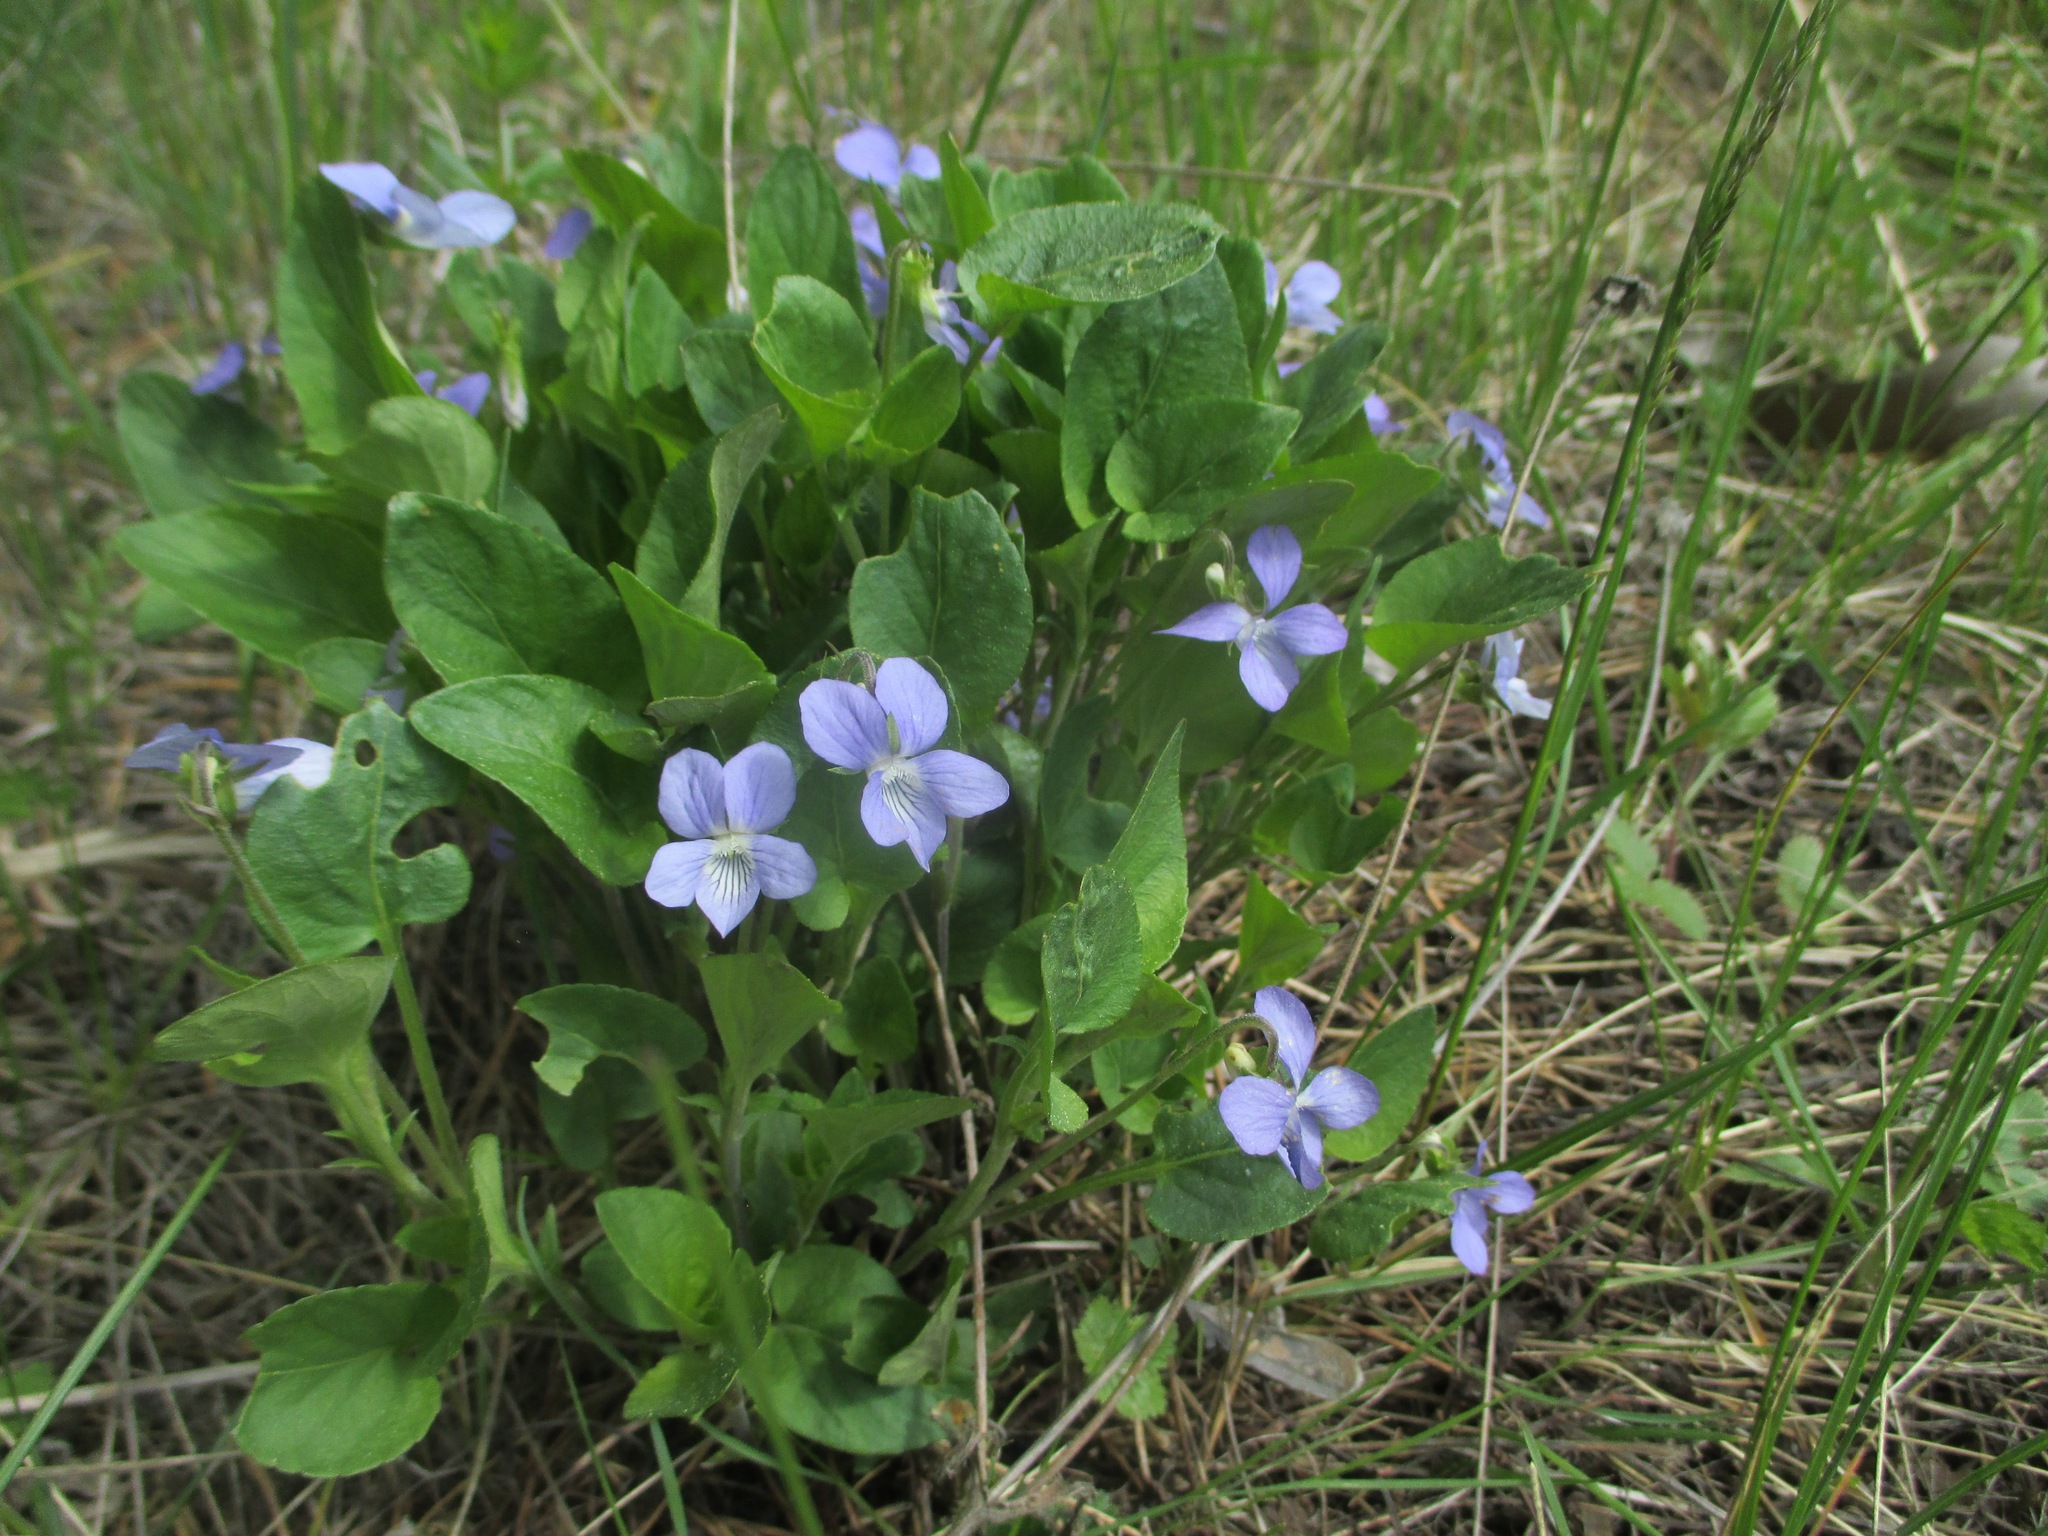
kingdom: Plantae
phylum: Tracheophyta
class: Magnoliopsida
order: Malpighiales
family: Violaceae
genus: Viola
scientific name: Viola canina
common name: Heath dog-violet
